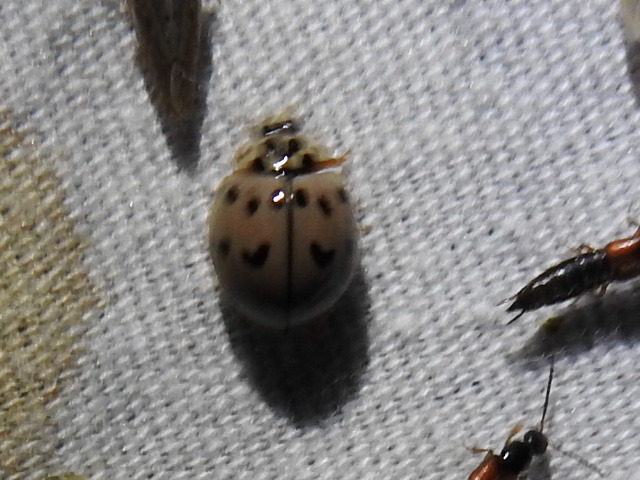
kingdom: Animalia
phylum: Arthropoda
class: Insecta
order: Coleoptera
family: Coccinellidae
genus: Olla
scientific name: Olla v-nigrum
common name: Ashy gray lady beetle
